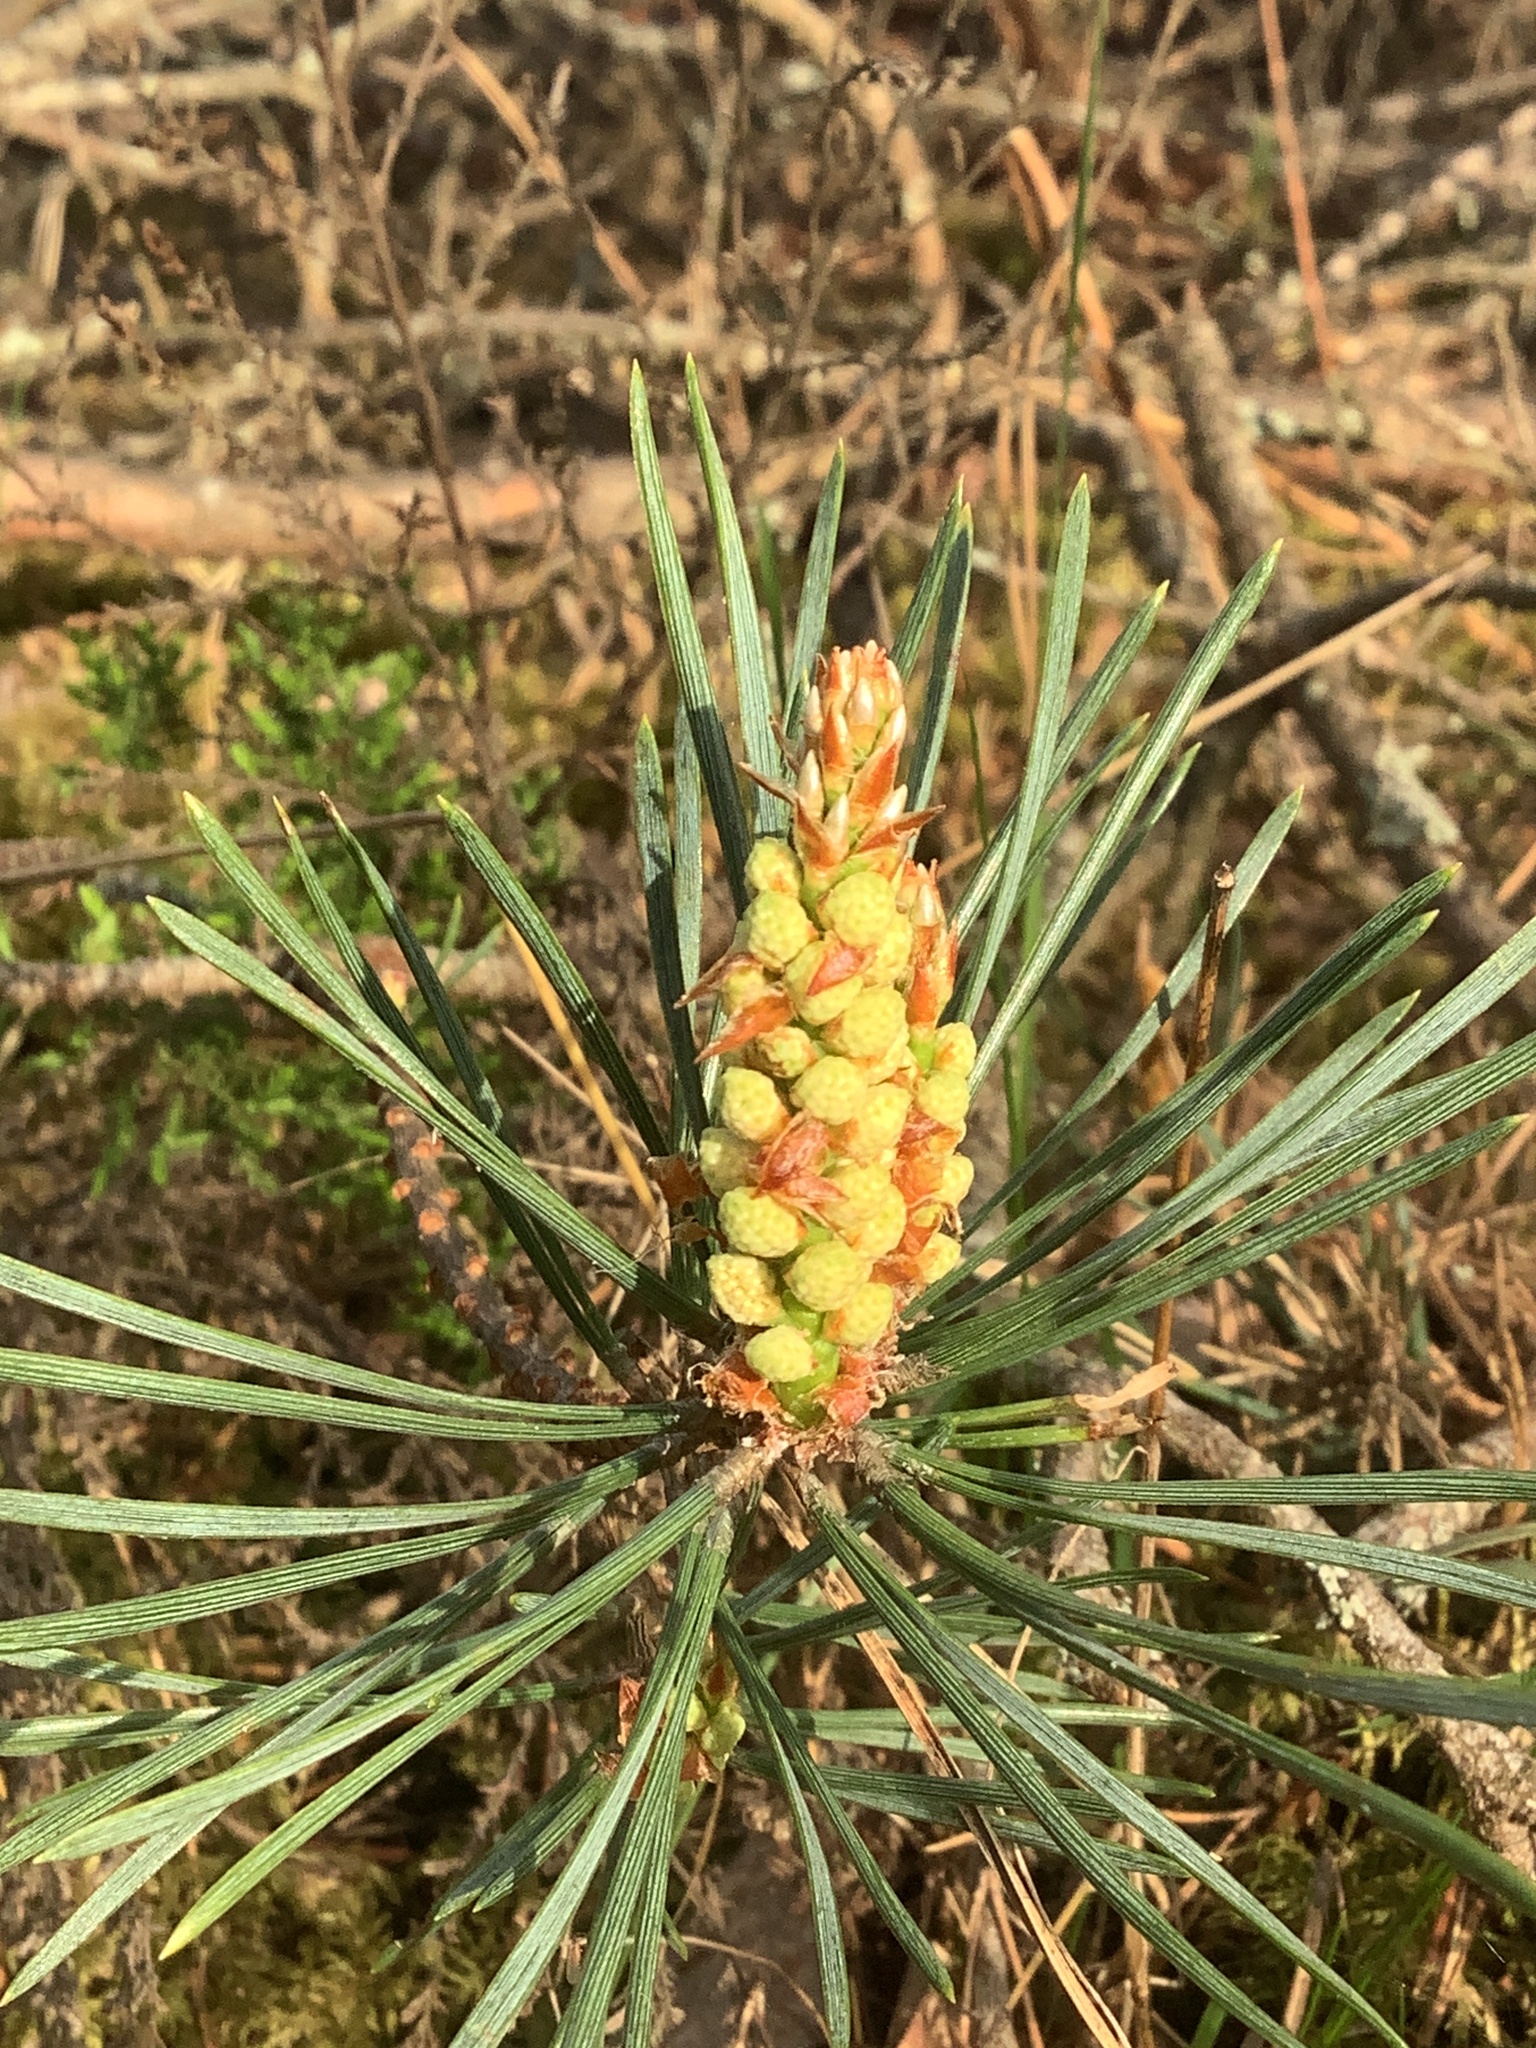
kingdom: Plantae
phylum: Tracheophyta
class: Pinopsida
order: Pinales
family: Pinaceae
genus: Pinus
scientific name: Pinus sylvestris
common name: Scots pine
